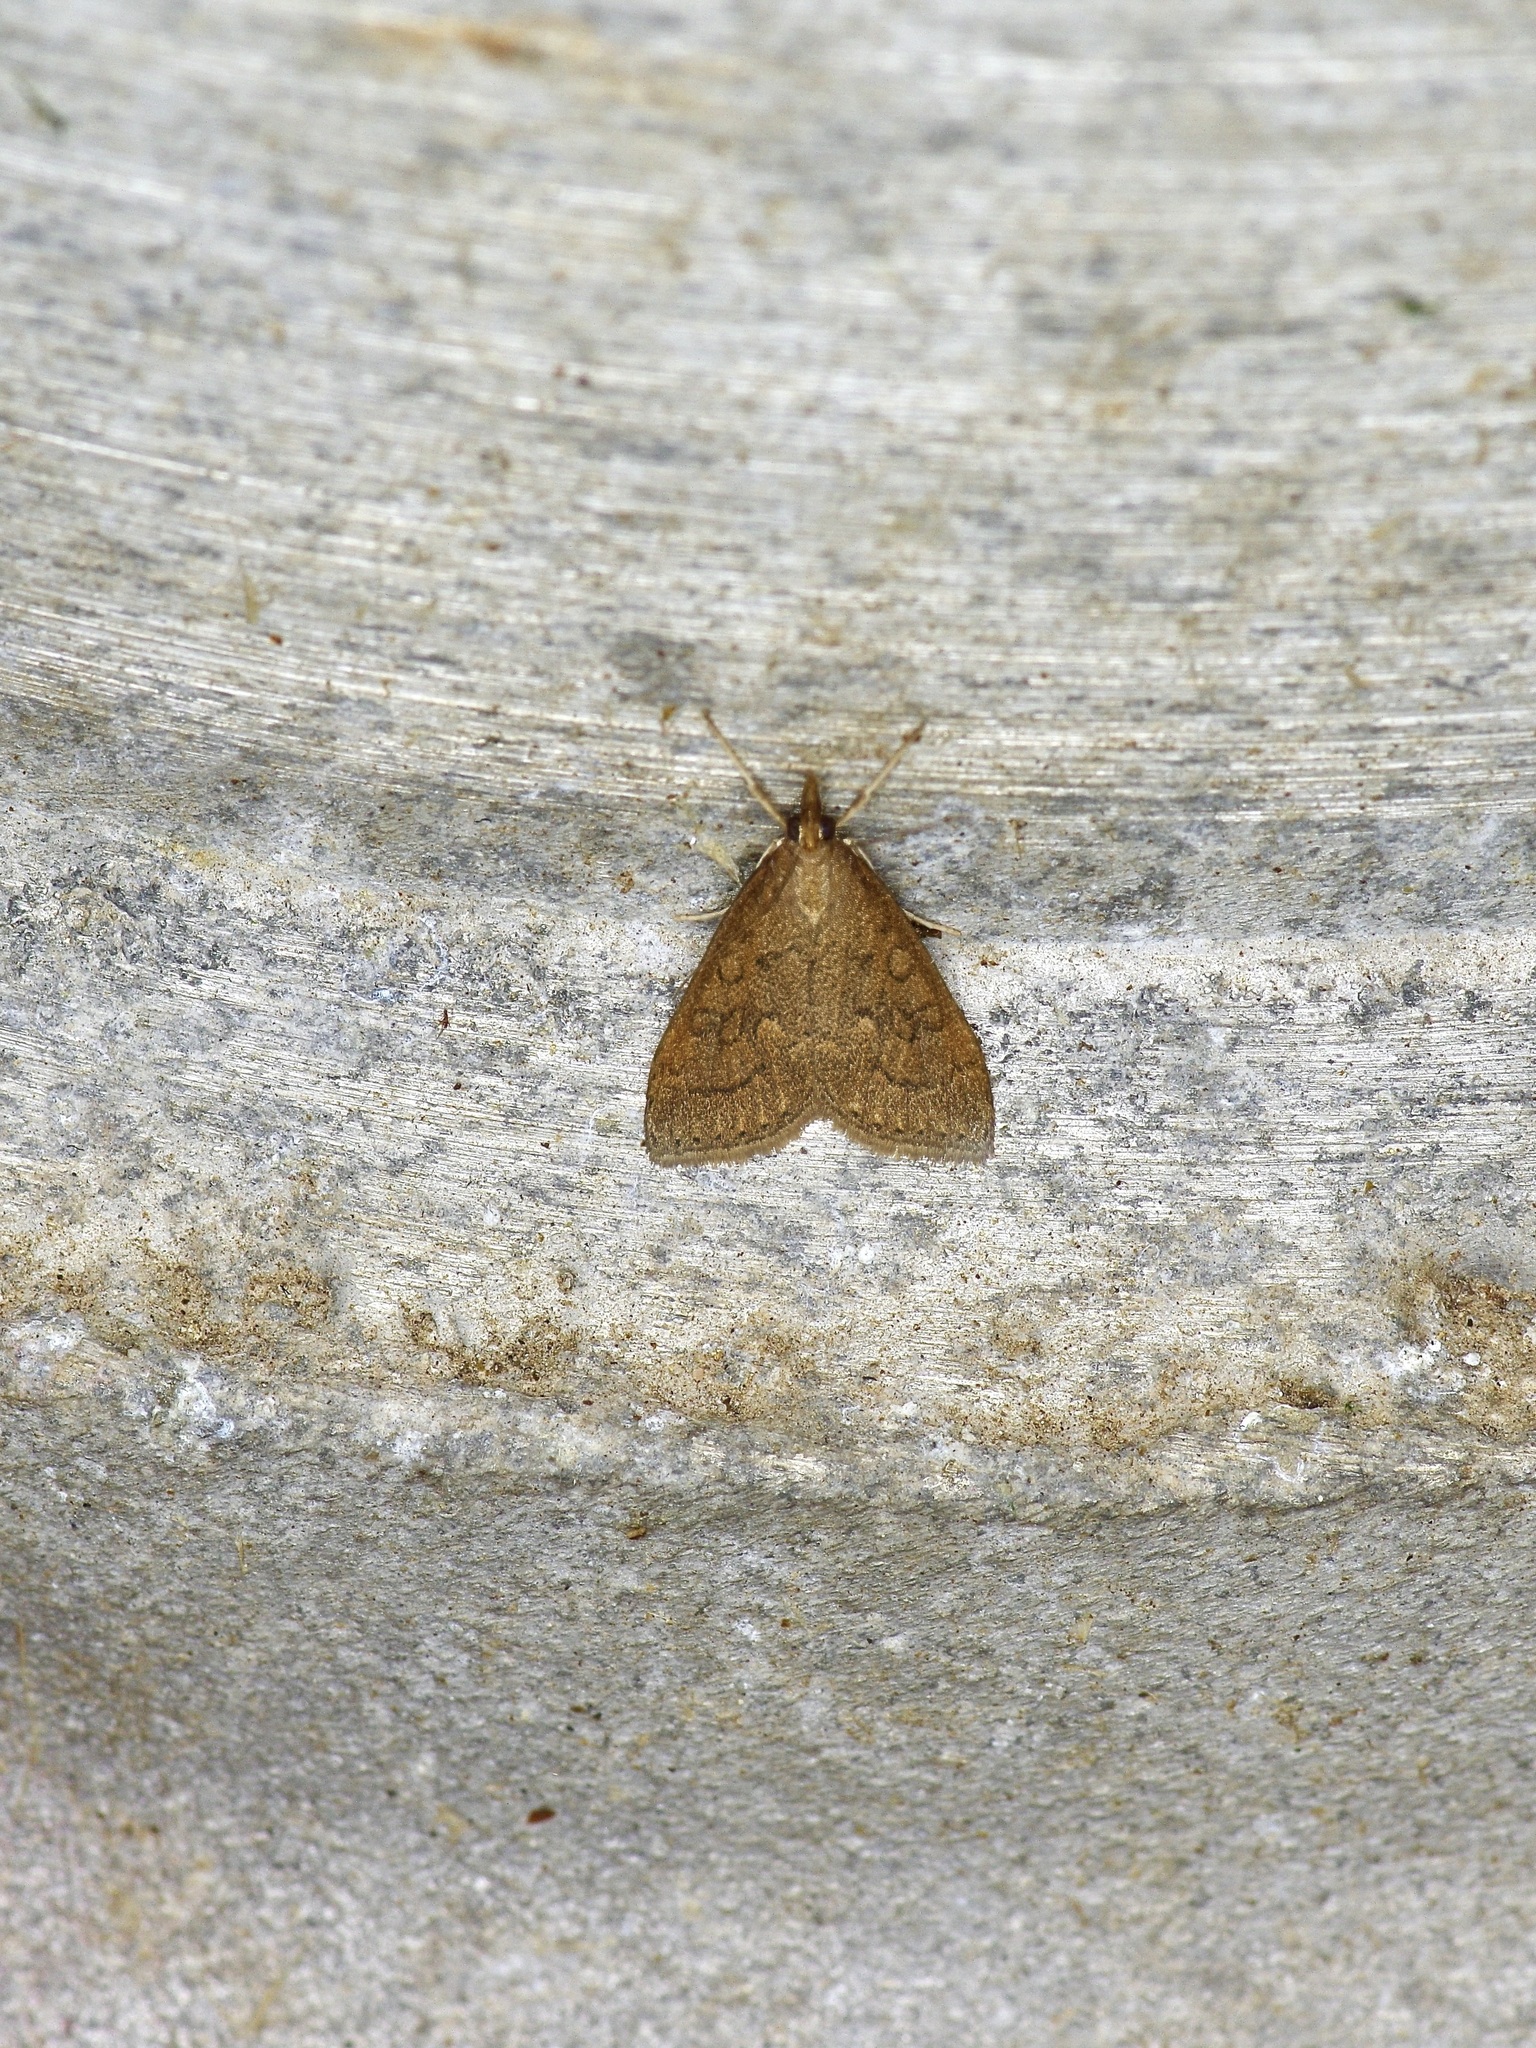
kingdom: Animalia
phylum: Arthropoda
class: Insecta
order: Lepidoptera
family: Crambidae
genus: Udea
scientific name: Udea rubigalis
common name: Celery leaftier moth
